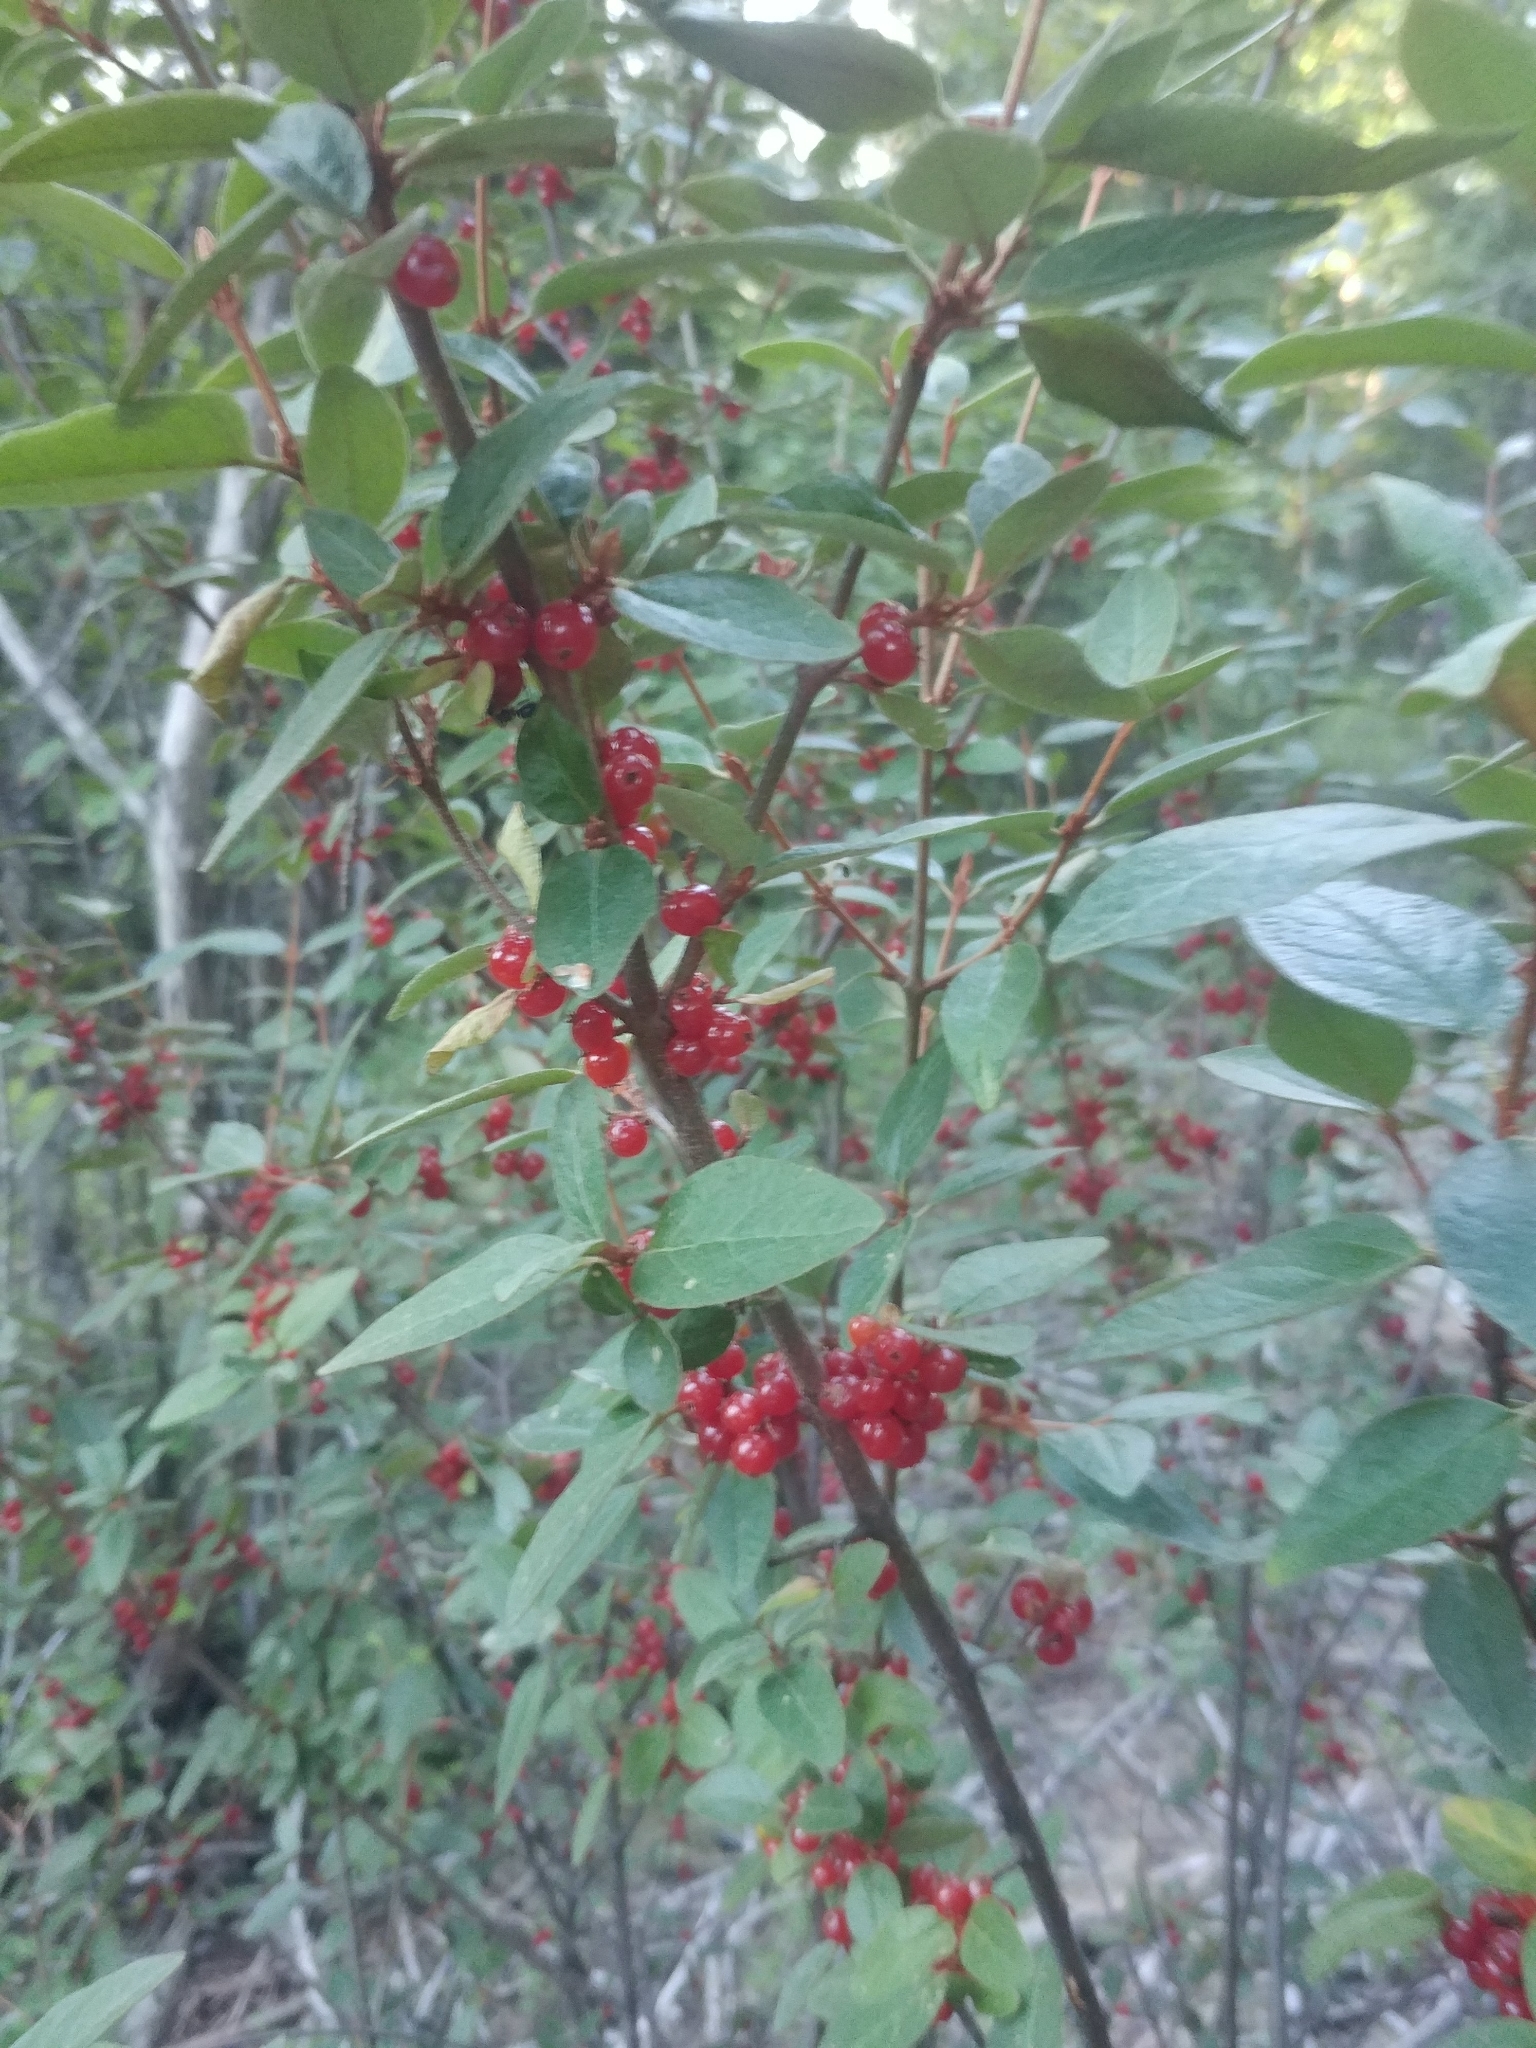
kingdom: Plantae
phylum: Tracheophyta
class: Magnoliopsida
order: Rosales
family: Elaeagnaceae
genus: Shepherdia
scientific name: Shepherdia canadensis
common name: Soapberry
